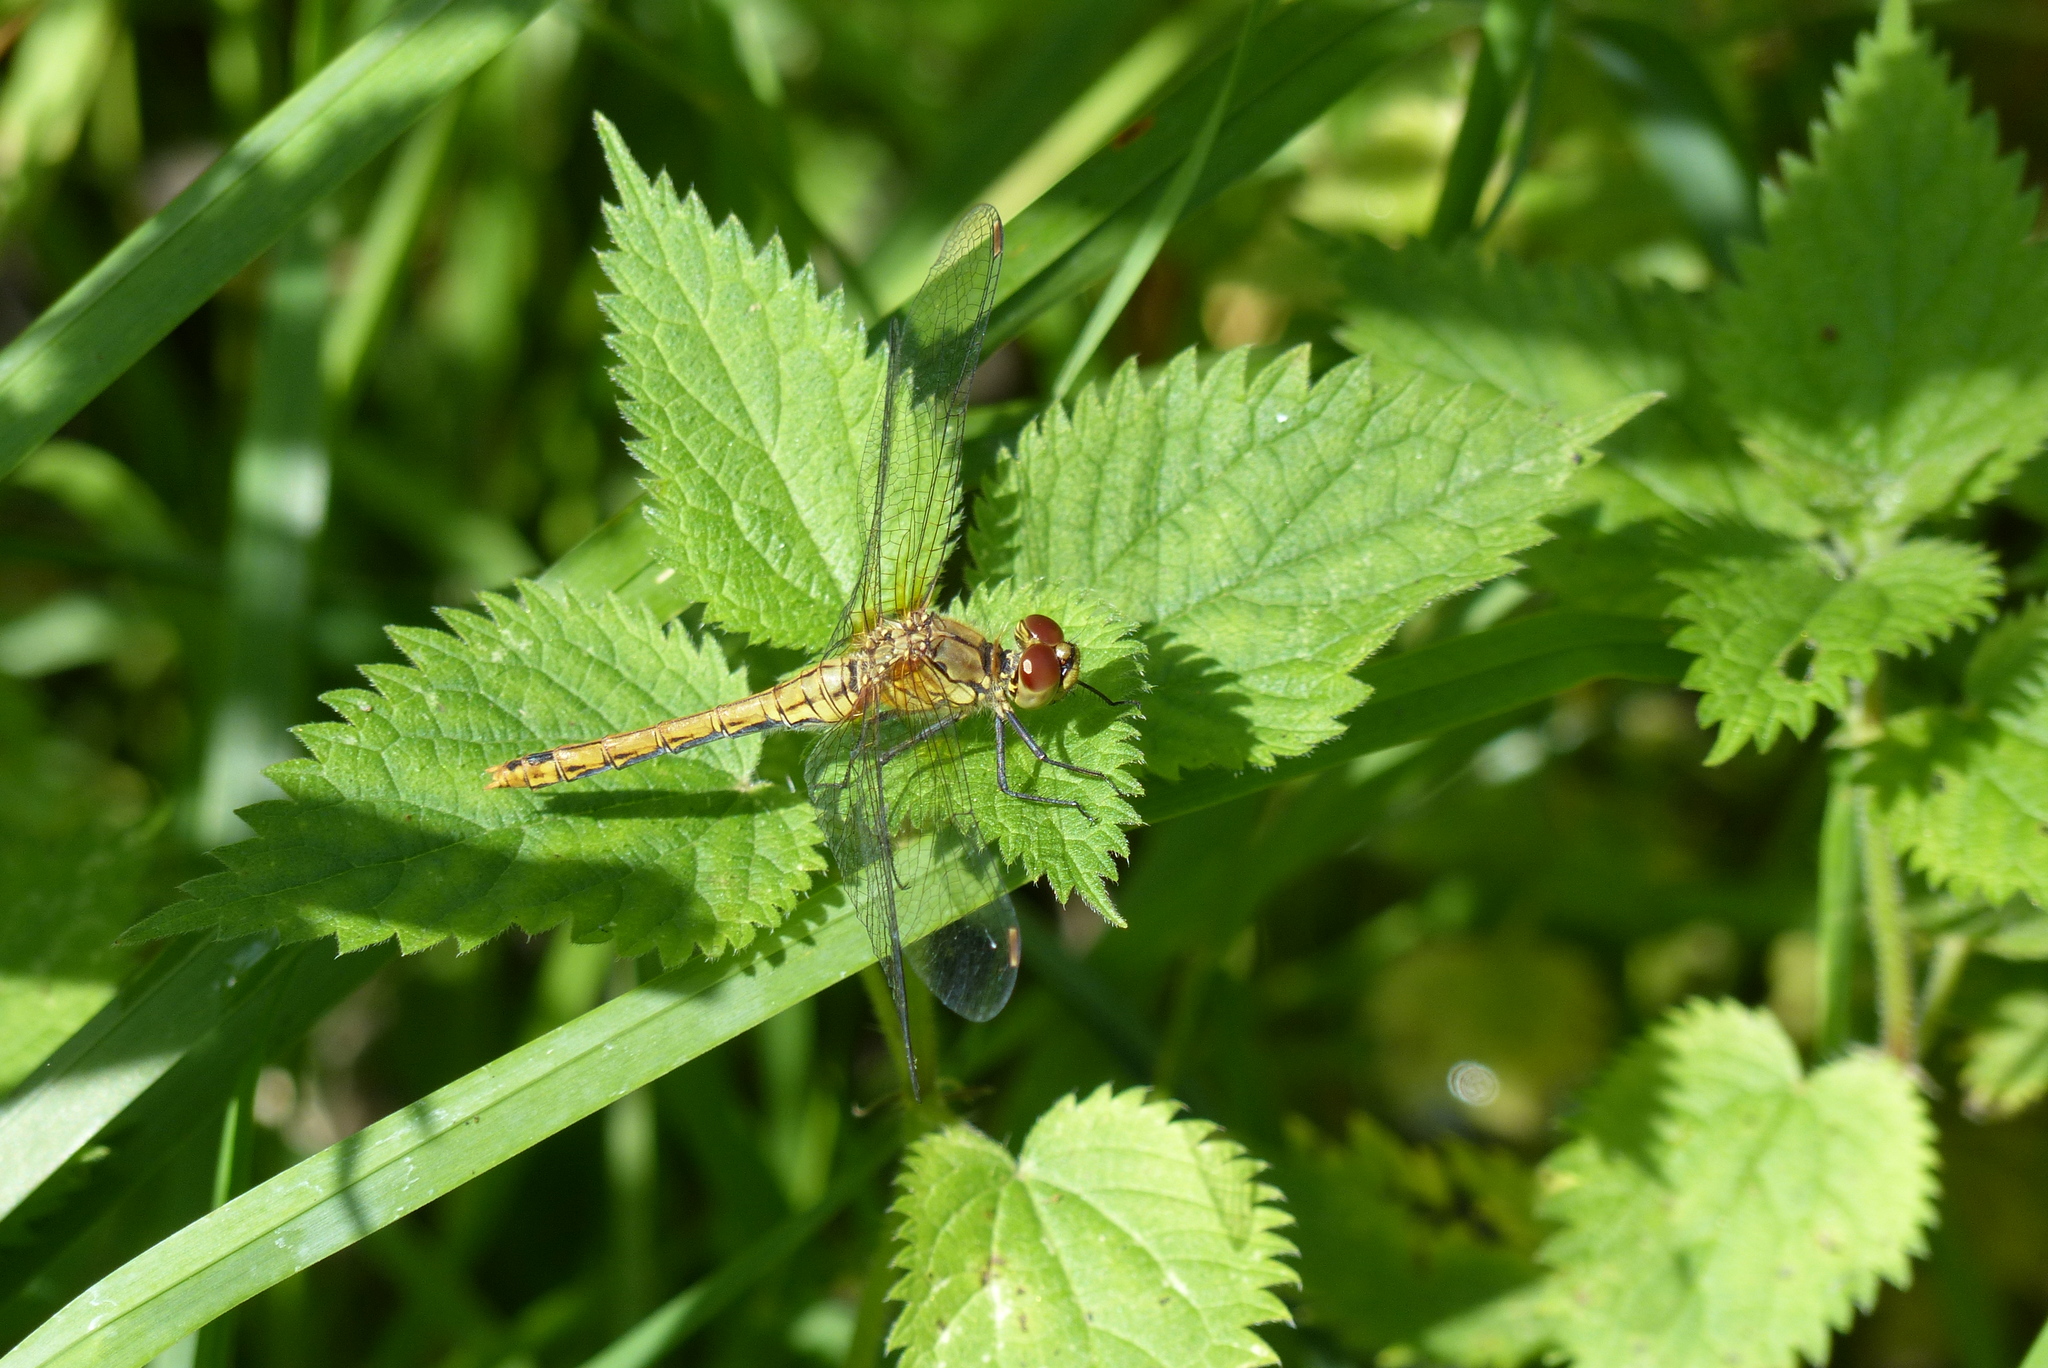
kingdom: Animalia
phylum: Arthropoda
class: Insecta
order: Odonata
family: Libellulidae
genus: Sympetrum
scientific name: Sympetrum sanguineum
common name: Ruddy darter
